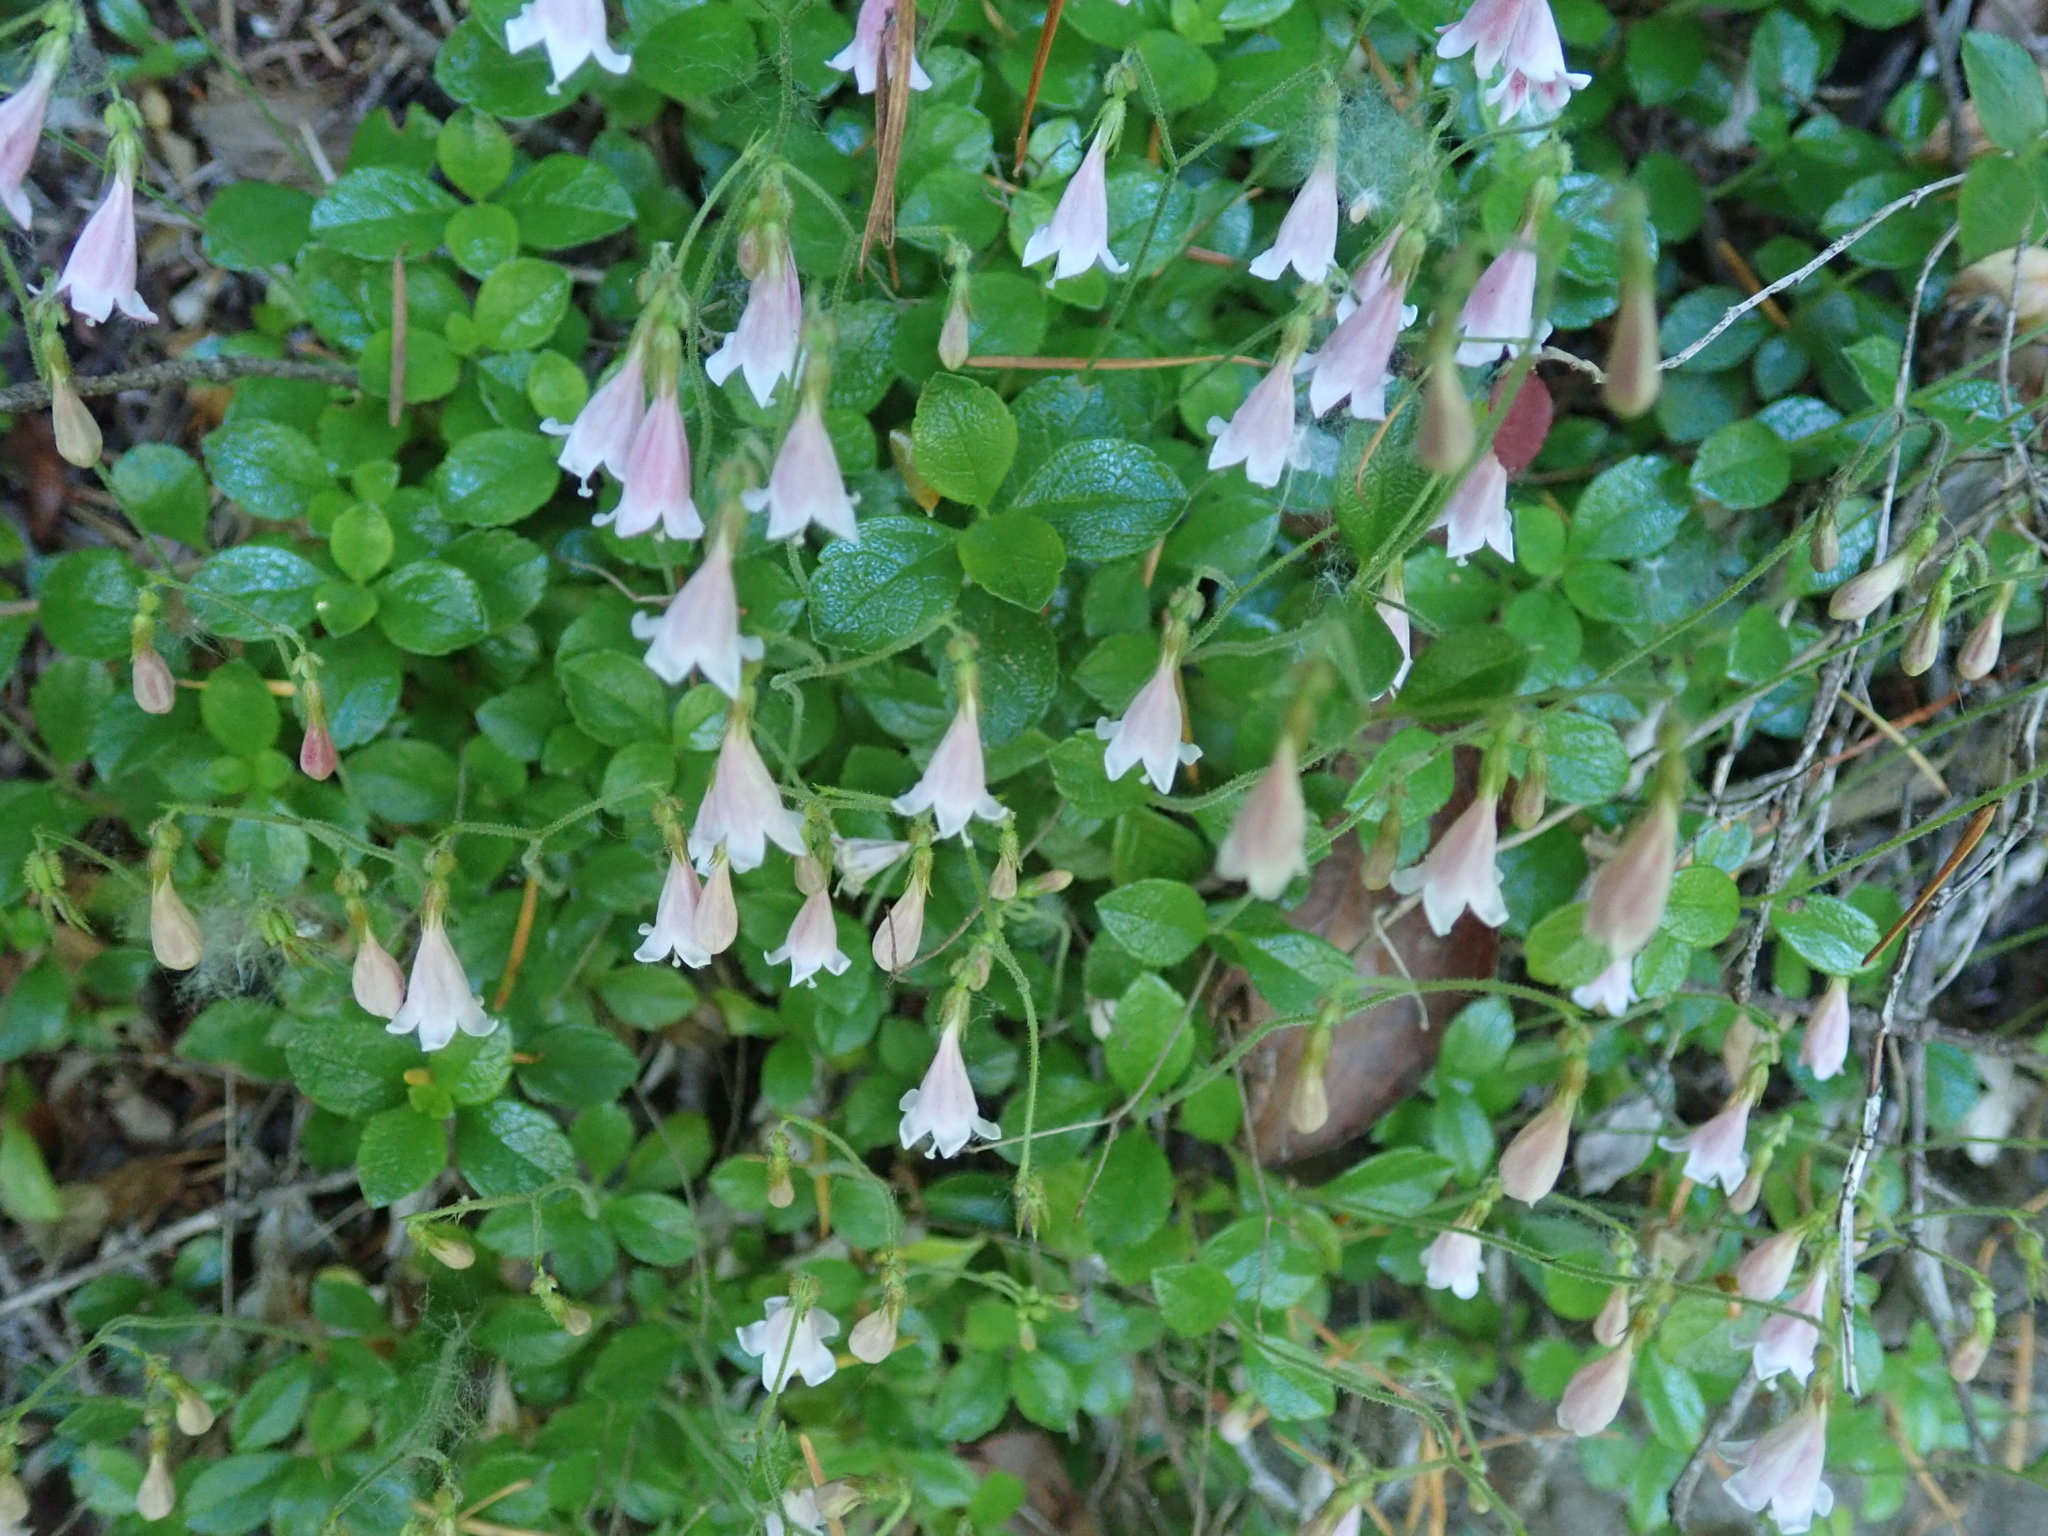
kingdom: Plantae
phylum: Tracheophyta
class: Magnoliopsida
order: Dipsacales
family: Caprifoliaceae
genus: Linnaea
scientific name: Linnaea borealis
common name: Twinflower
